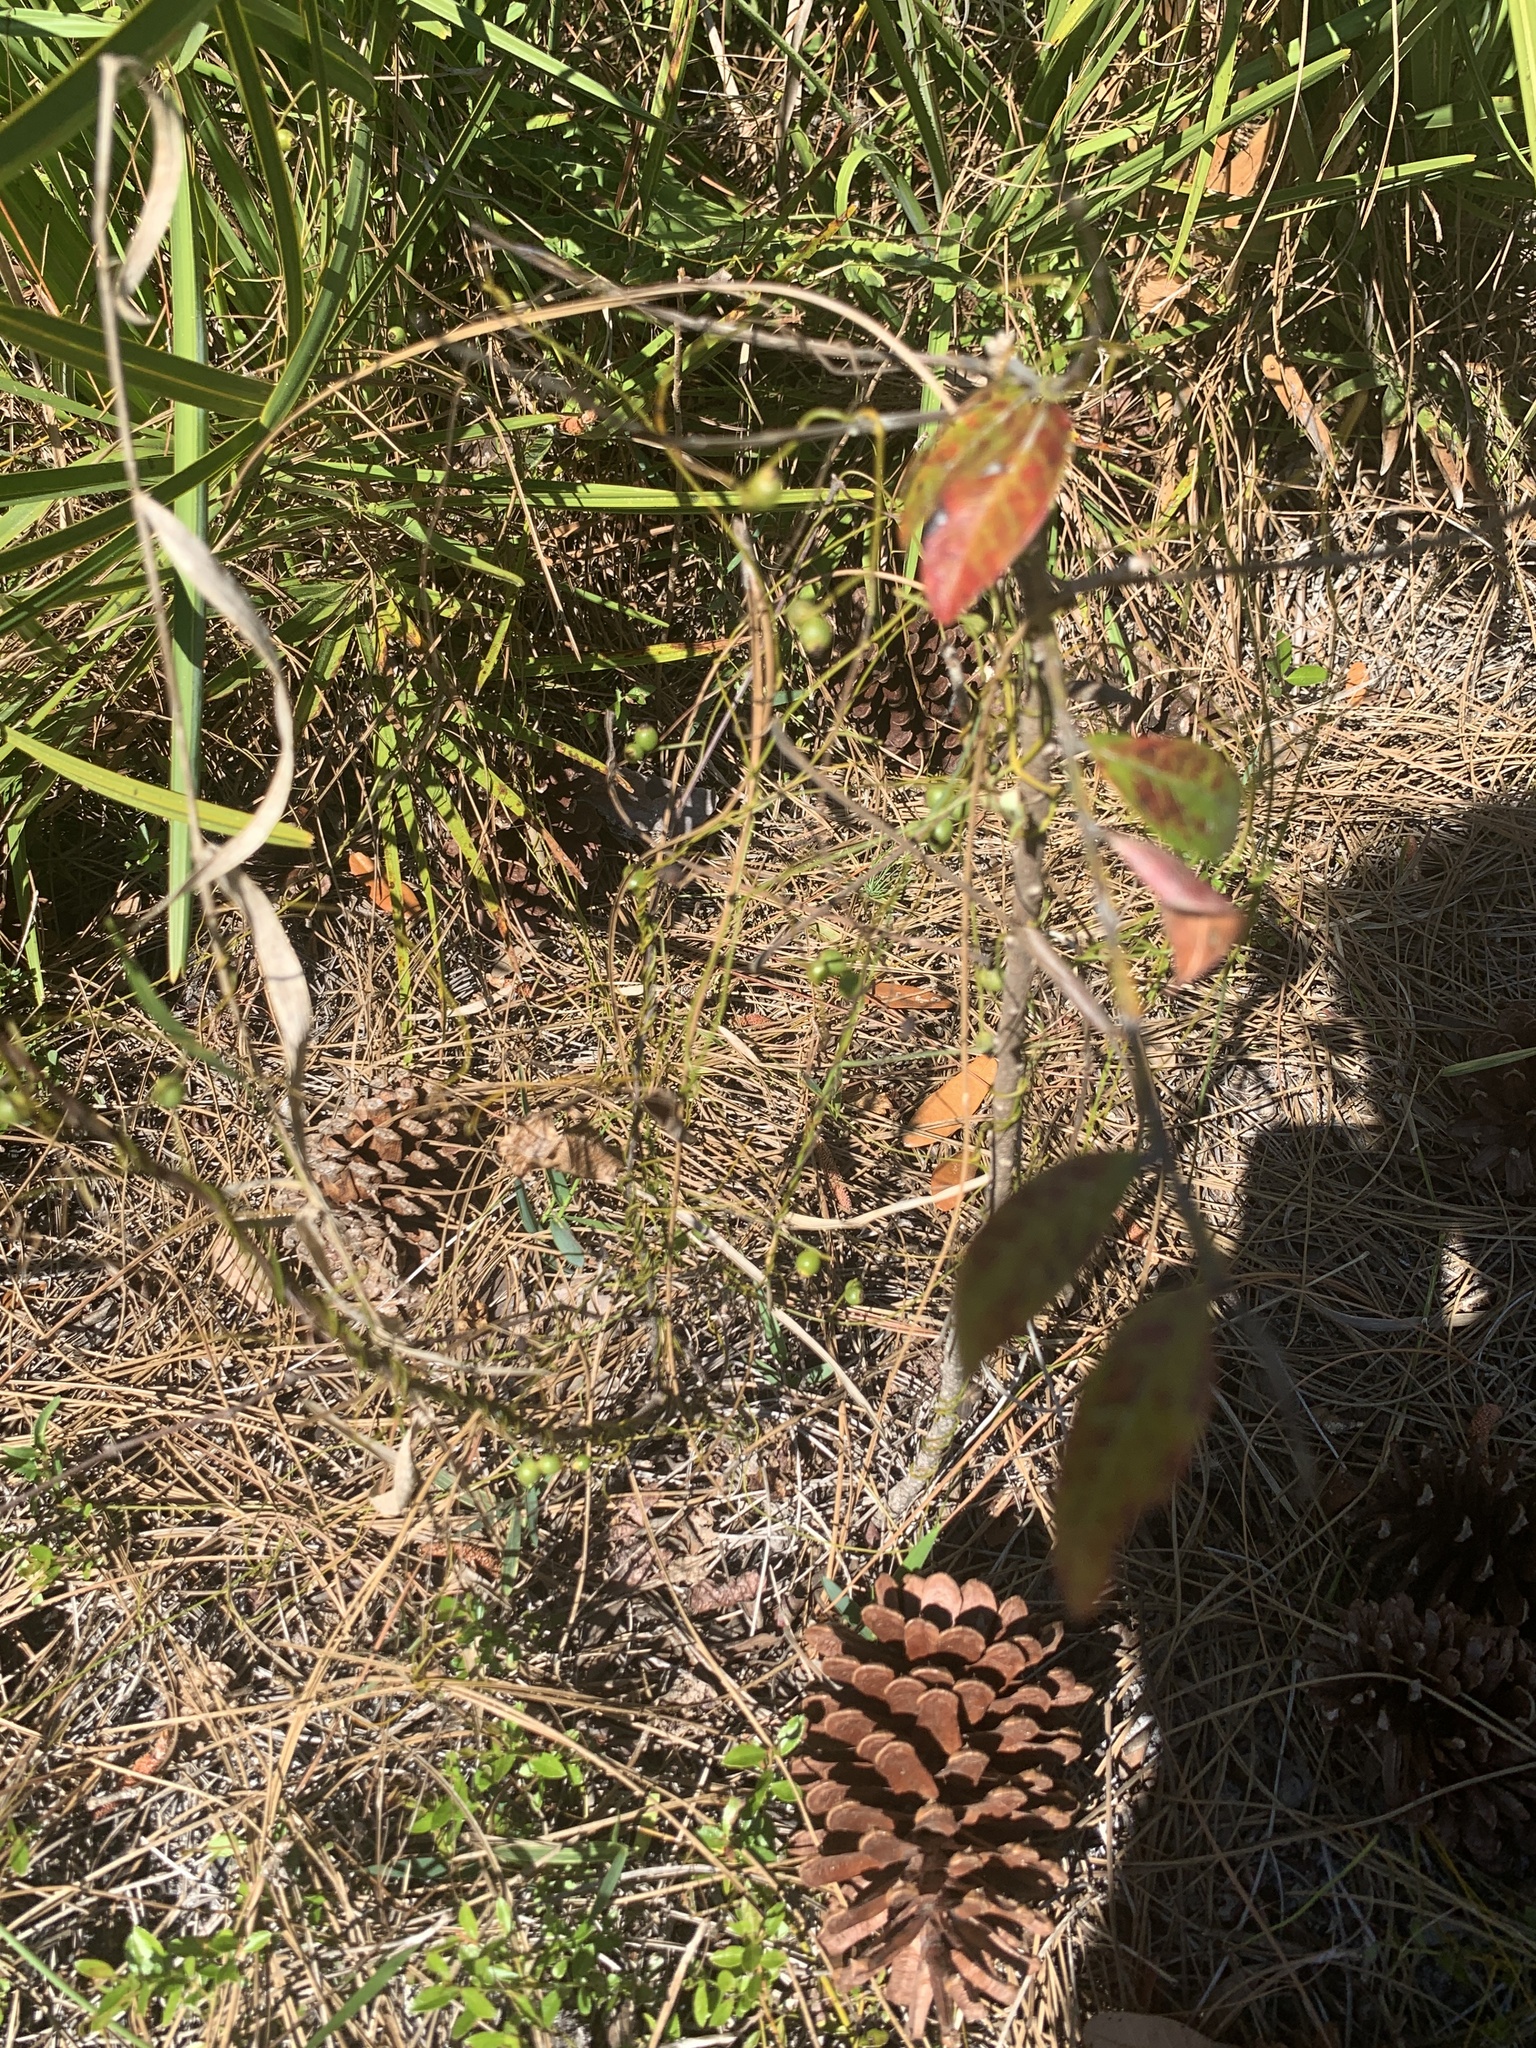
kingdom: Plantae
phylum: Tracheophyta
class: Magnoliopsida
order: Laurales
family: Lauraceae
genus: Cassytha
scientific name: Cassytha filiformis
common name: Dodder-laurel
